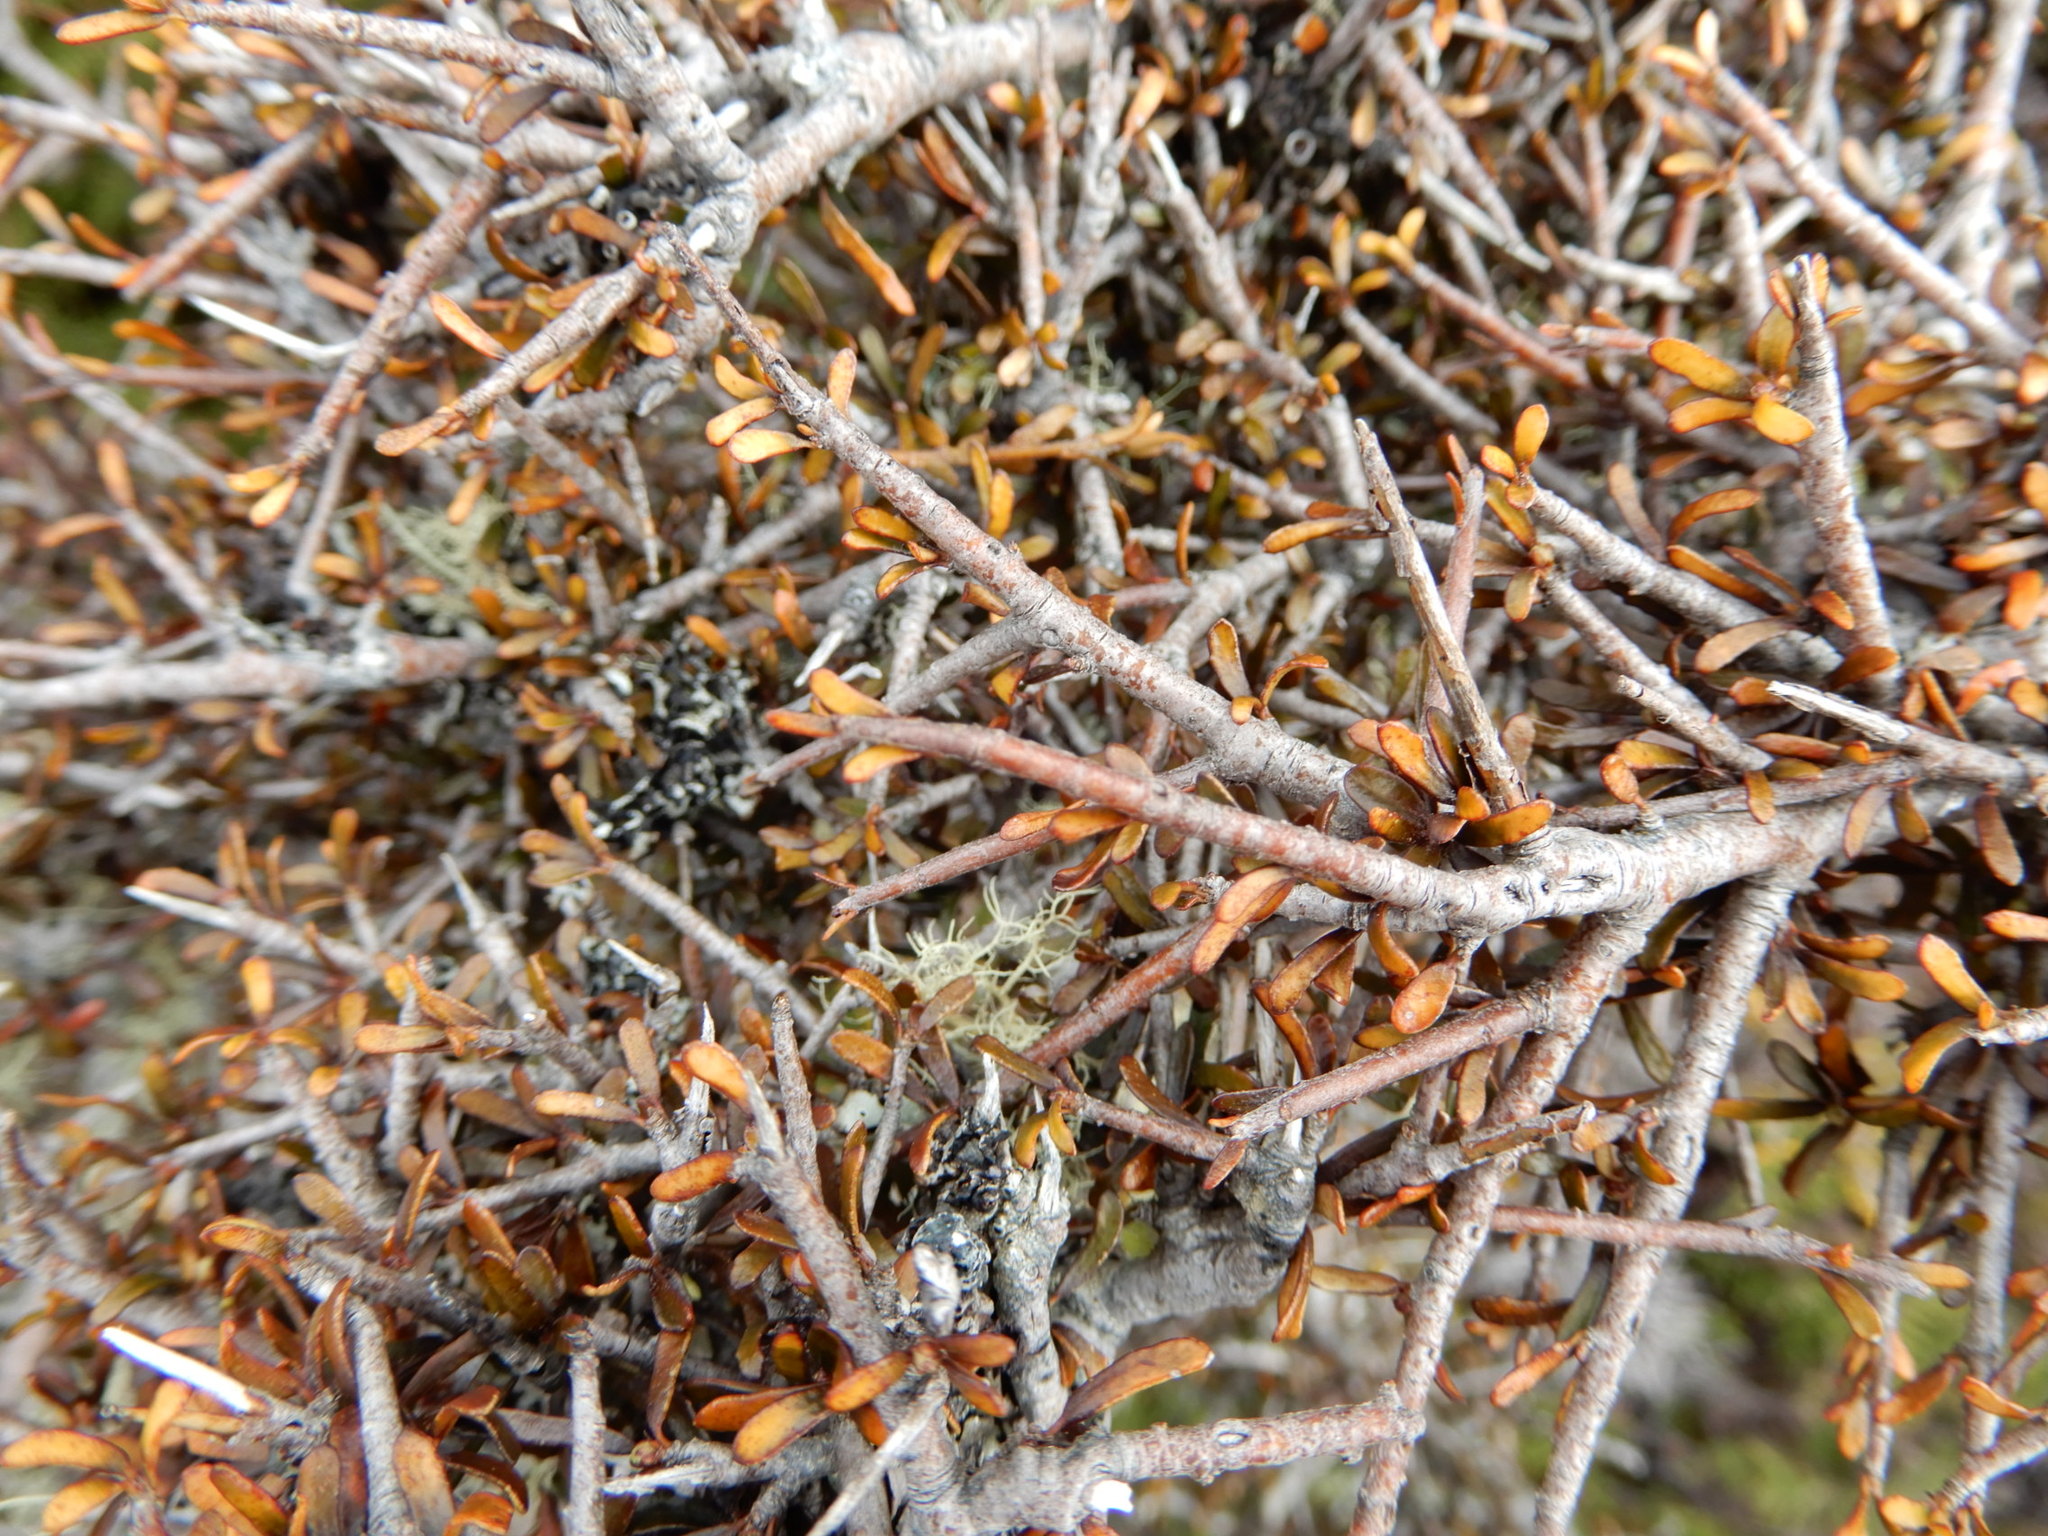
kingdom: Plantae
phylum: Tracheophyta
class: Magnoliopsida
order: Malpighiales
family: Violaceae
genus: Melicytus
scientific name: Melicytus alpinus
